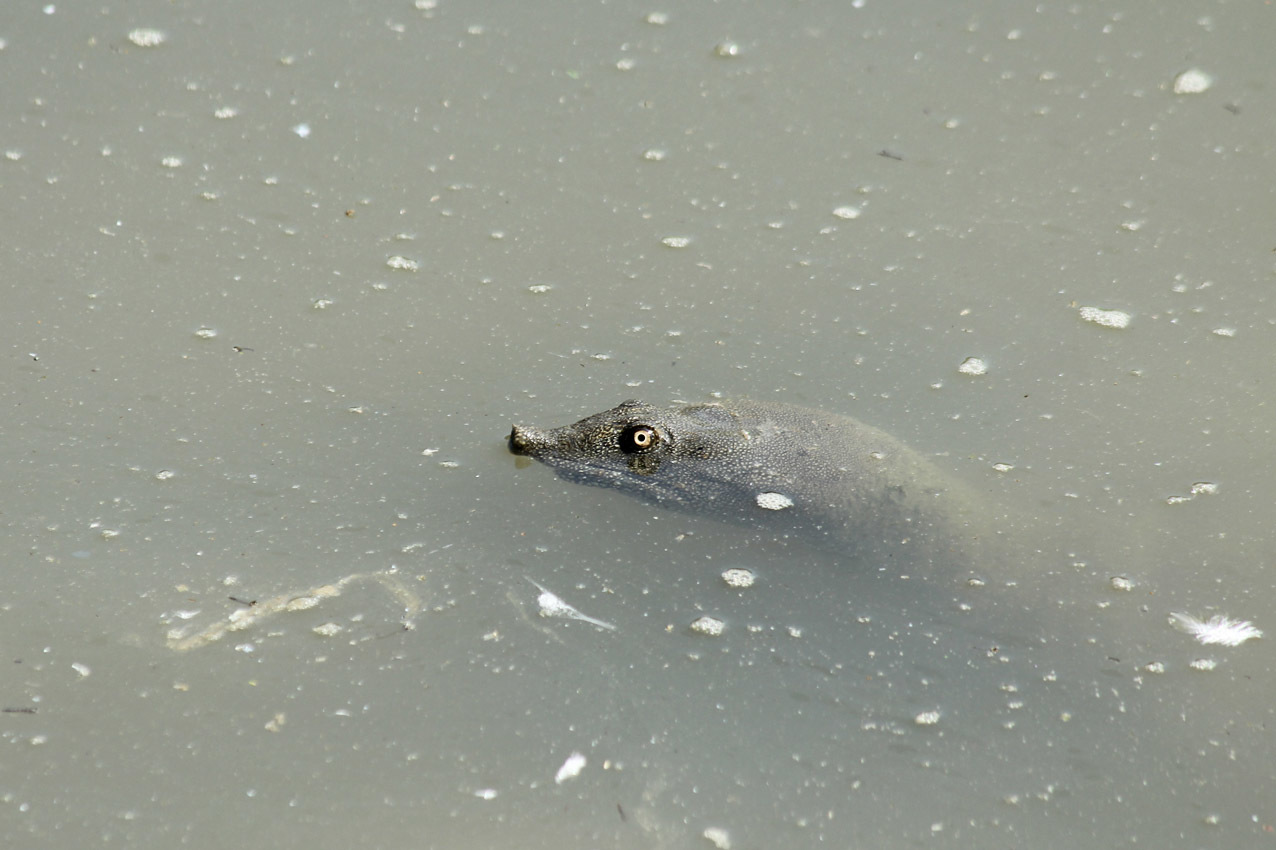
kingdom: Animalia
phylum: Chordata
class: Testudines
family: Trionychidae
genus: Pelodiscus
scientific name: Pelodiscus sinensis
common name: Chinese softshell turtle
